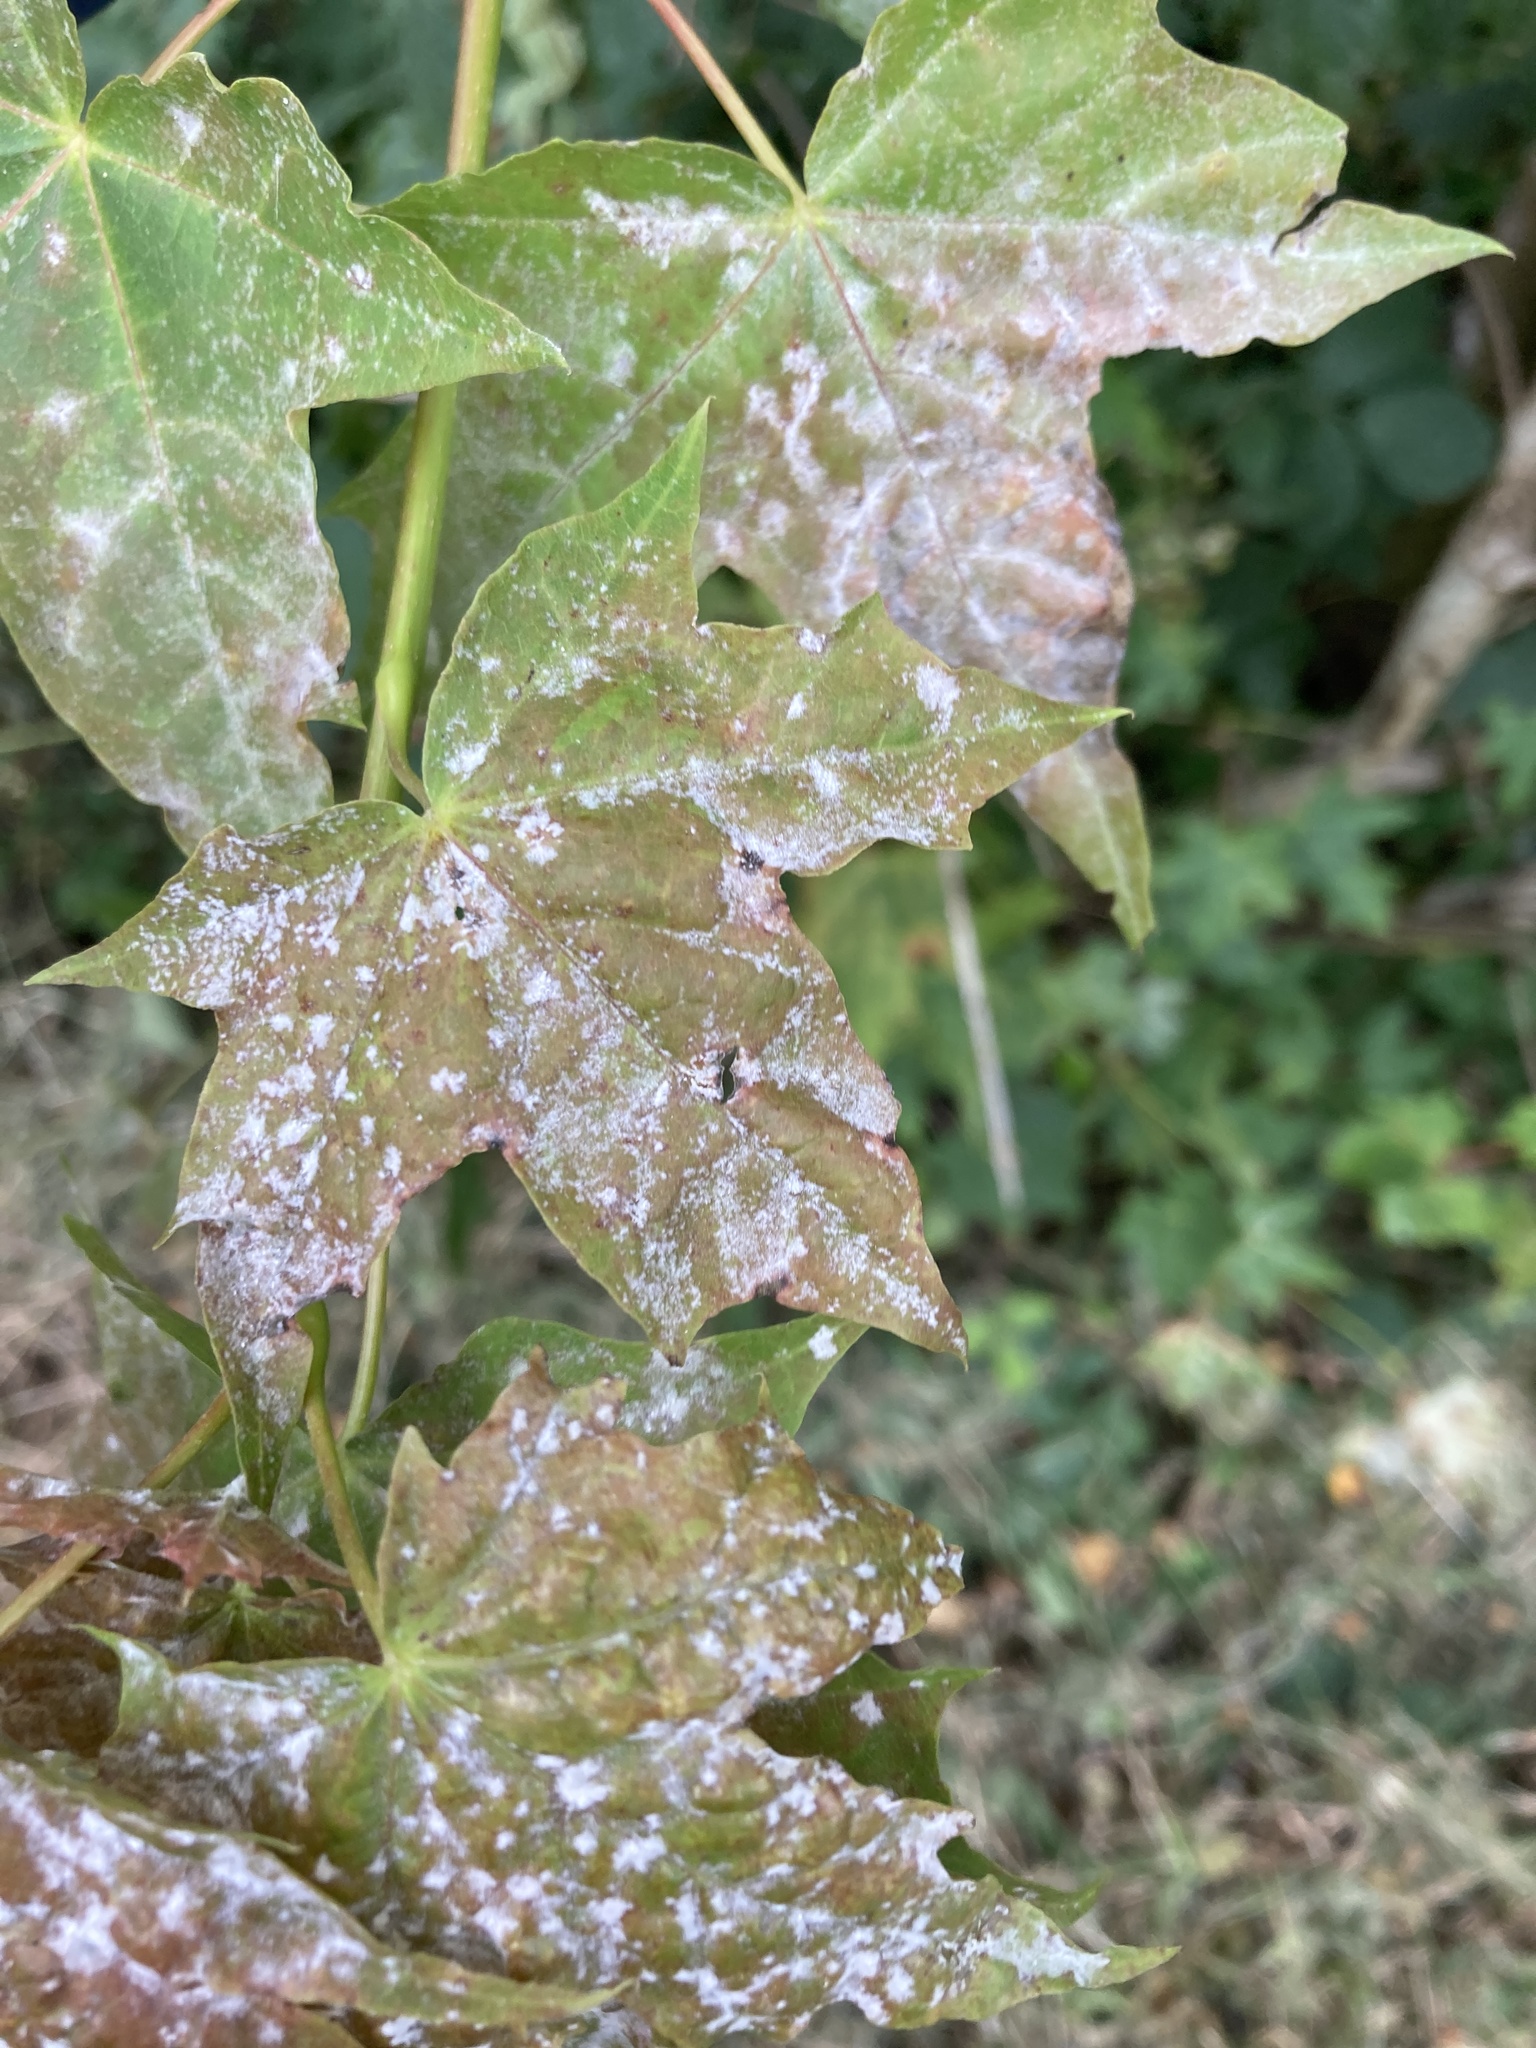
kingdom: Fungi
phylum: Ascomycota
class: Leotiomycetes
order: Helotiales
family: Erysiphaceae
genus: Sawadaea
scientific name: Sawadaea tulasnei
